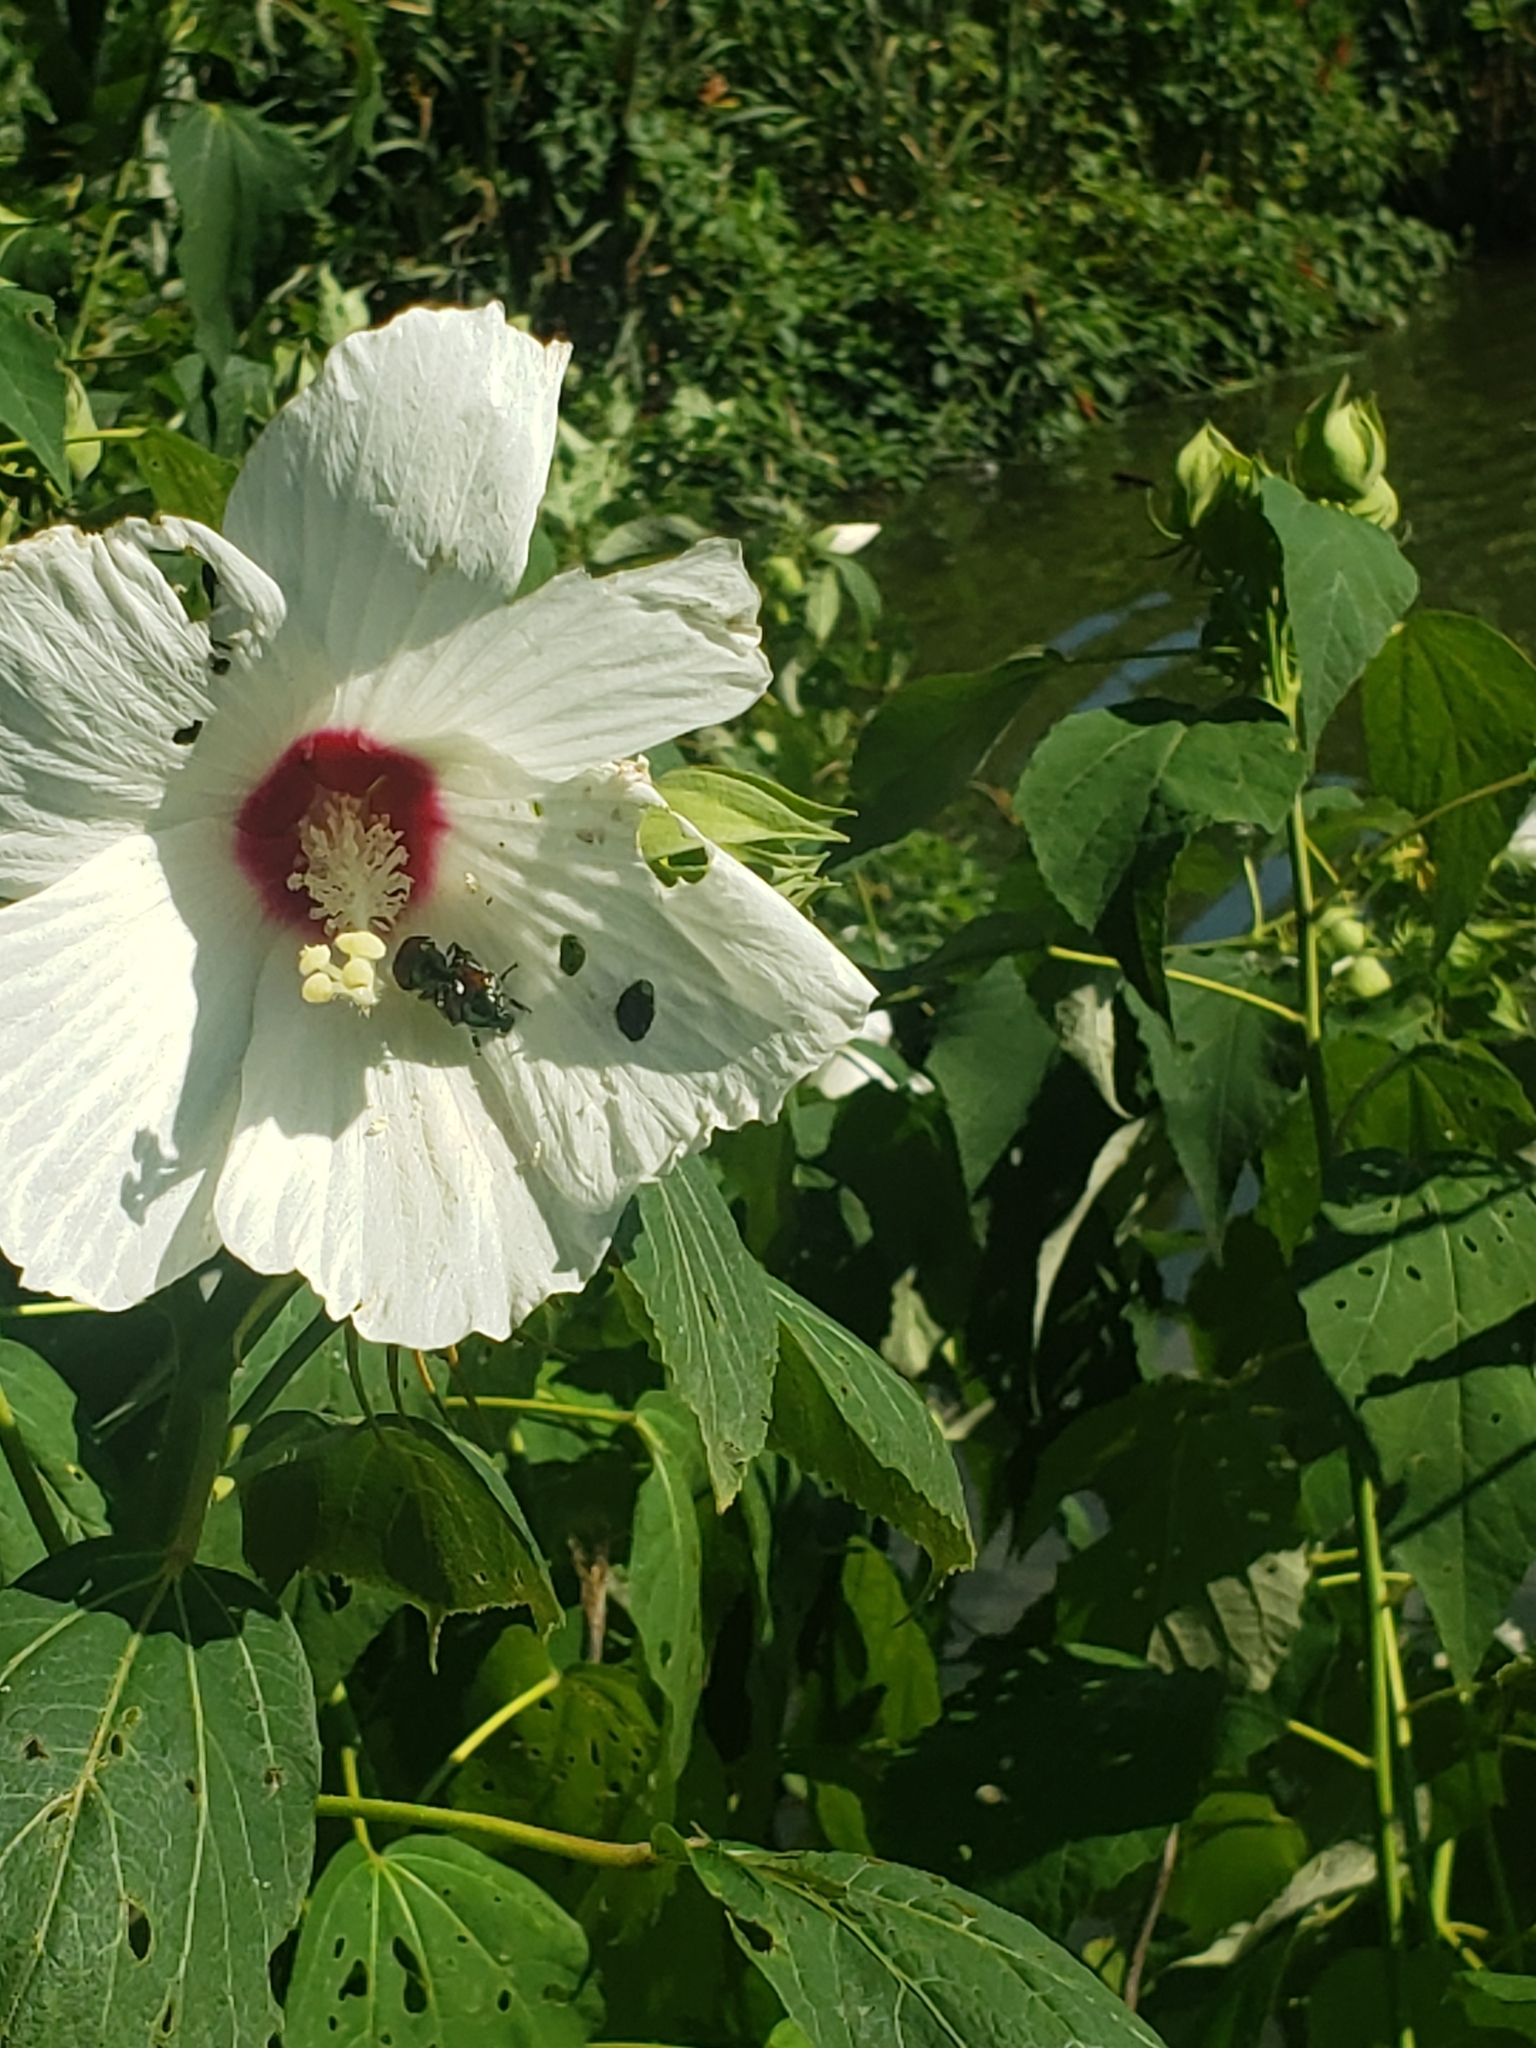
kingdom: Plantae
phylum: Tracheophyta
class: Magnoliopsida
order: Malvales
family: Malvaceae
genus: Hibiscus
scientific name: Hibiscus moscheutos
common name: Common rose-mallow
